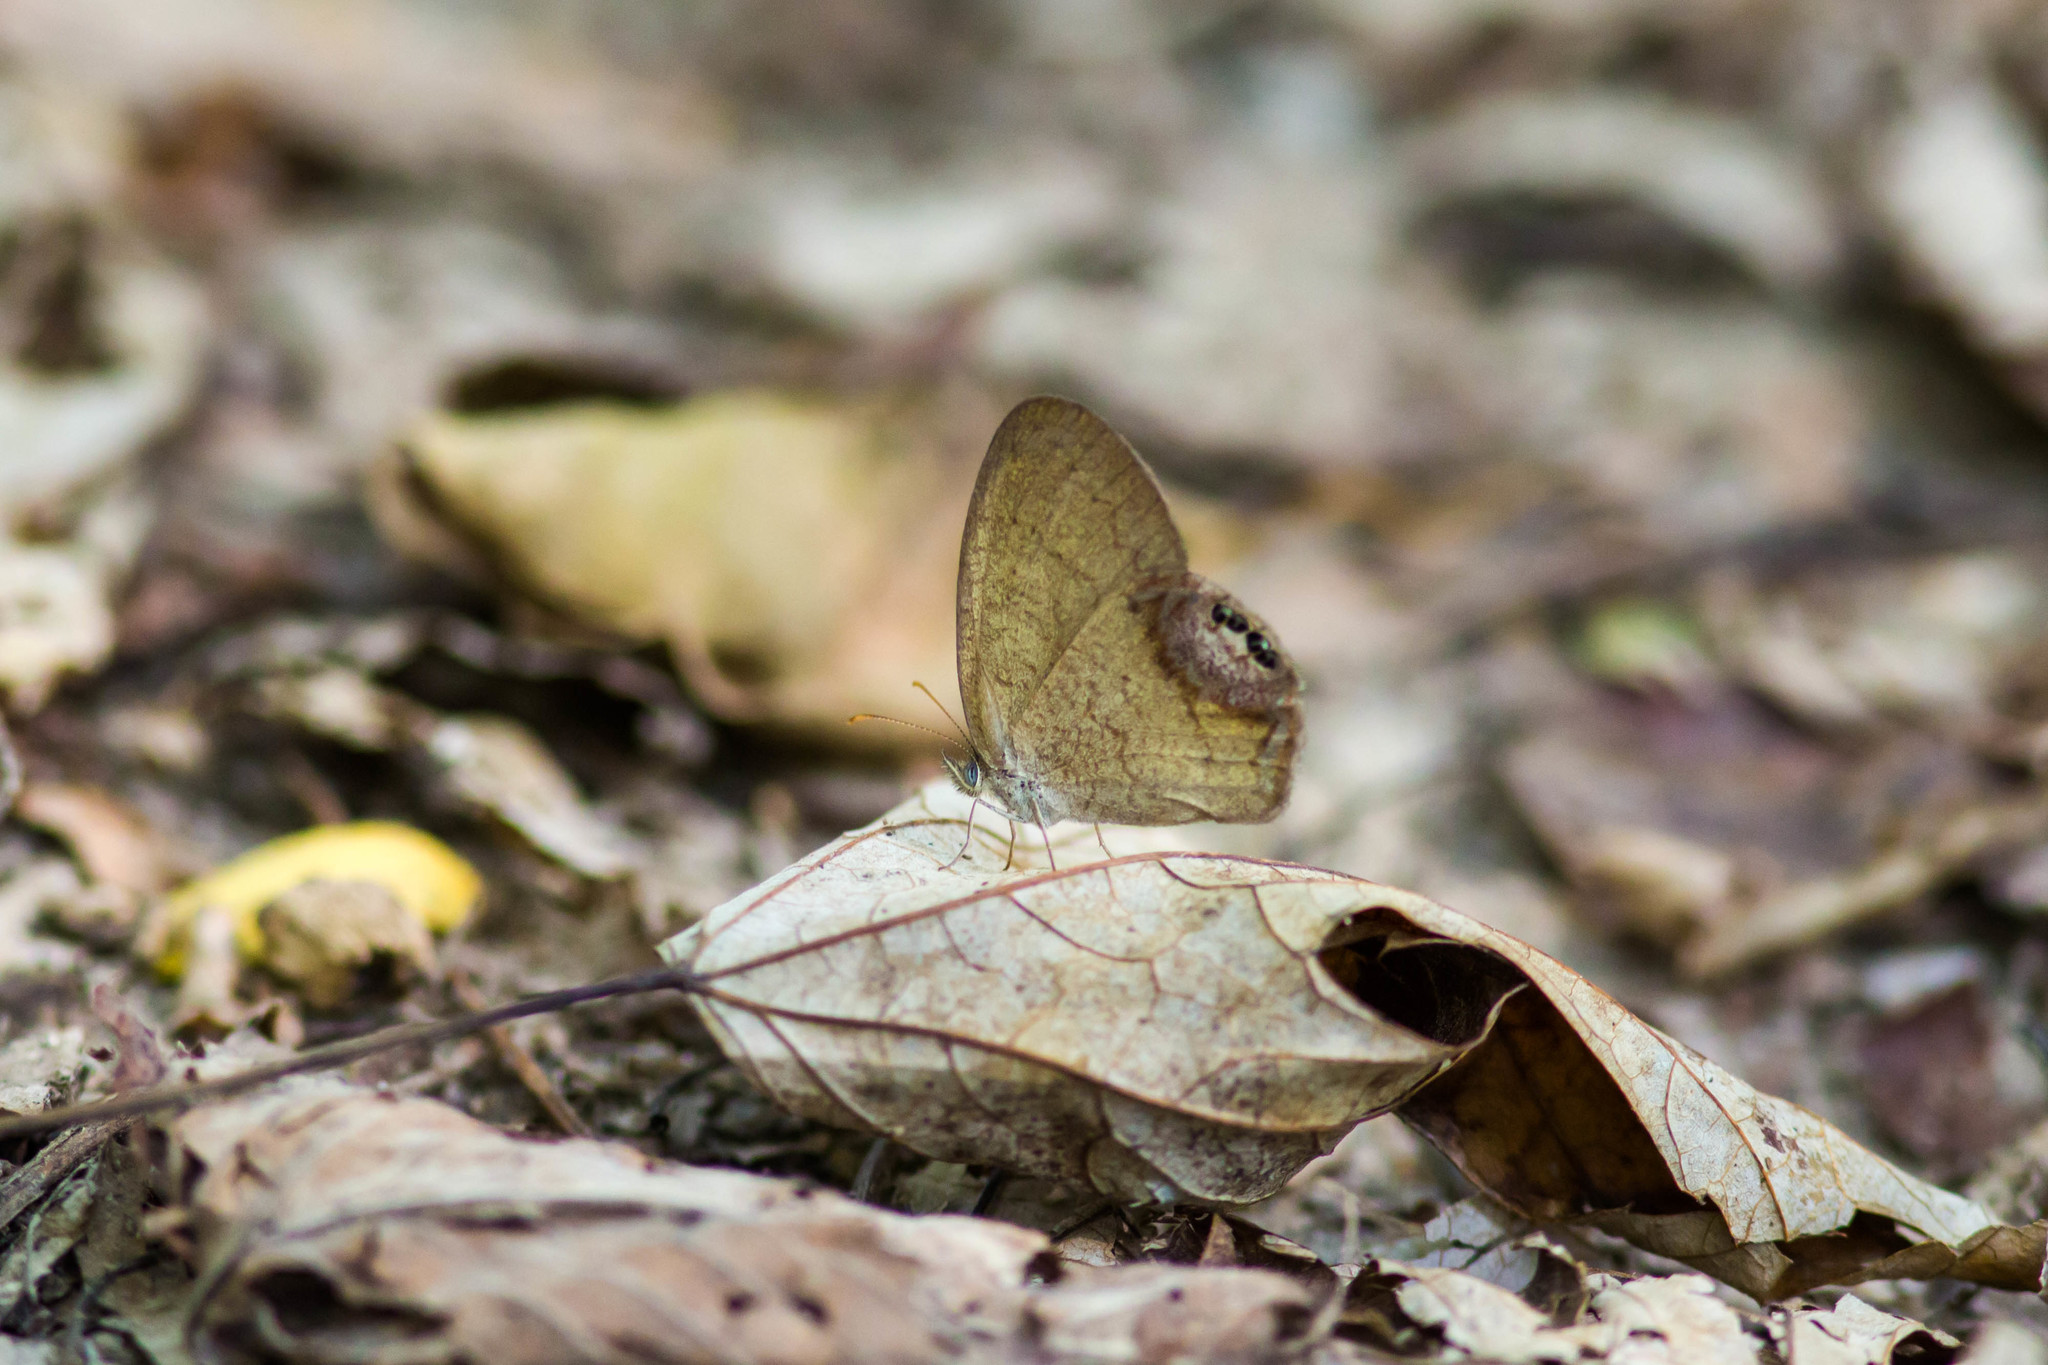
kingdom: Animalia
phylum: Arthropoda
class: Insecta
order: Lepidoptera
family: Nymphalidae
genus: Euptychia
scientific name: Euptychia cornelius
